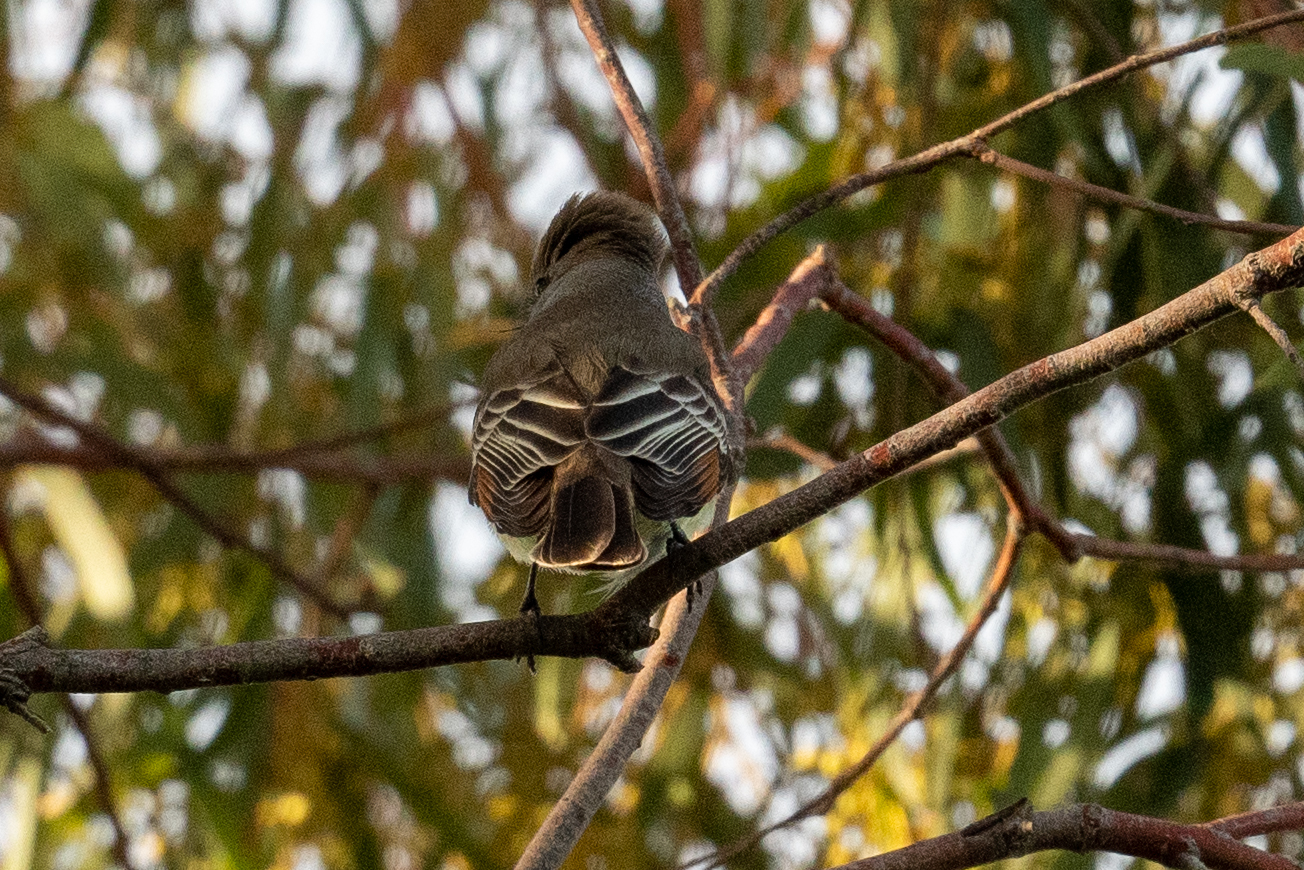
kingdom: Animalia
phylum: Chordata
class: Aves
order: Passeriformes
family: Tyrannidae
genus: Myiarchus
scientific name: Myiarchus cinerascens
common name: Ash-throated flycatcher
